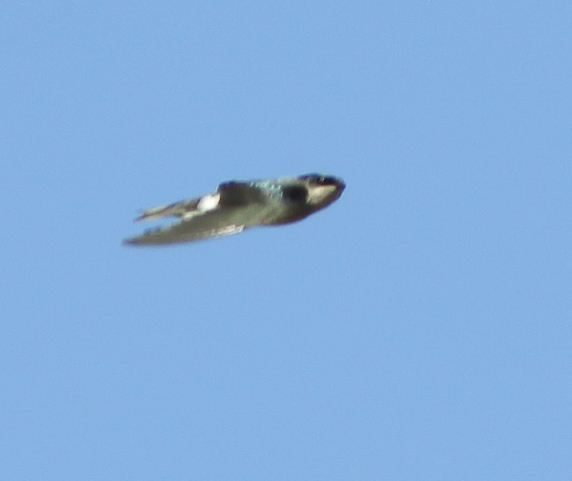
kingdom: Animalia
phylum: Chordata
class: Aves
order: Passeriformes
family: Hirundinidae
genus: Tachycineta
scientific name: Tachycineta bicolor
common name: Tree swallow
